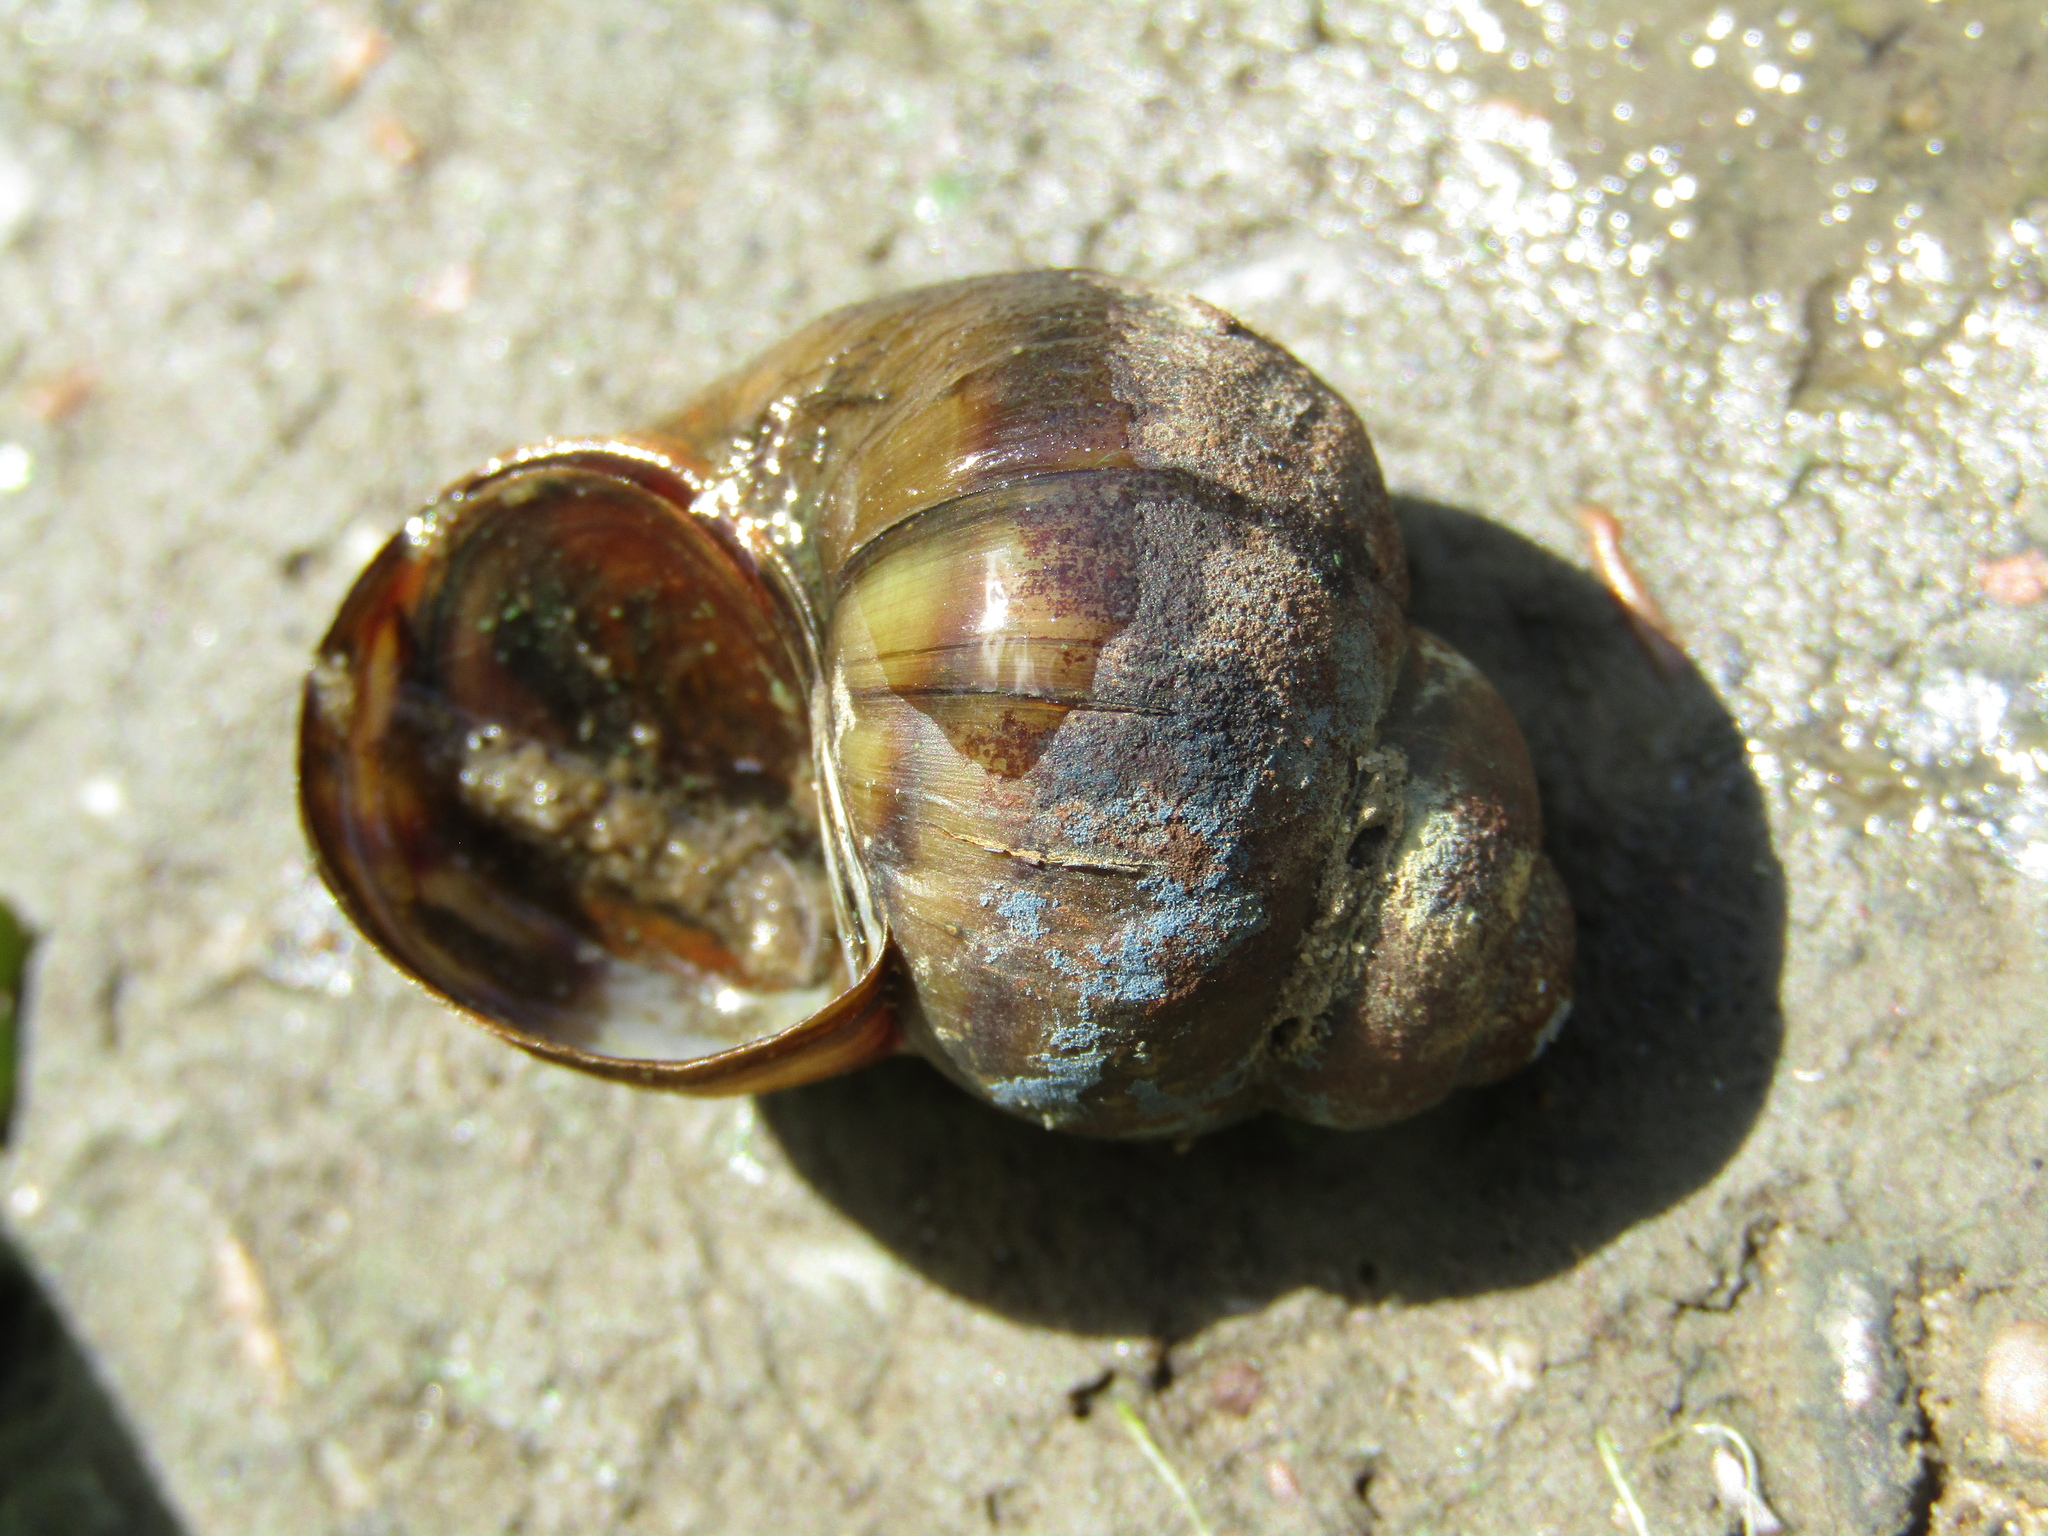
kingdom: Animalia
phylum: Mollusca
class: Gastropoda
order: Architaenioglossa
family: Viviparidae
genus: Viviparus
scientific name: Viviparus viviparus
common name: River snail
